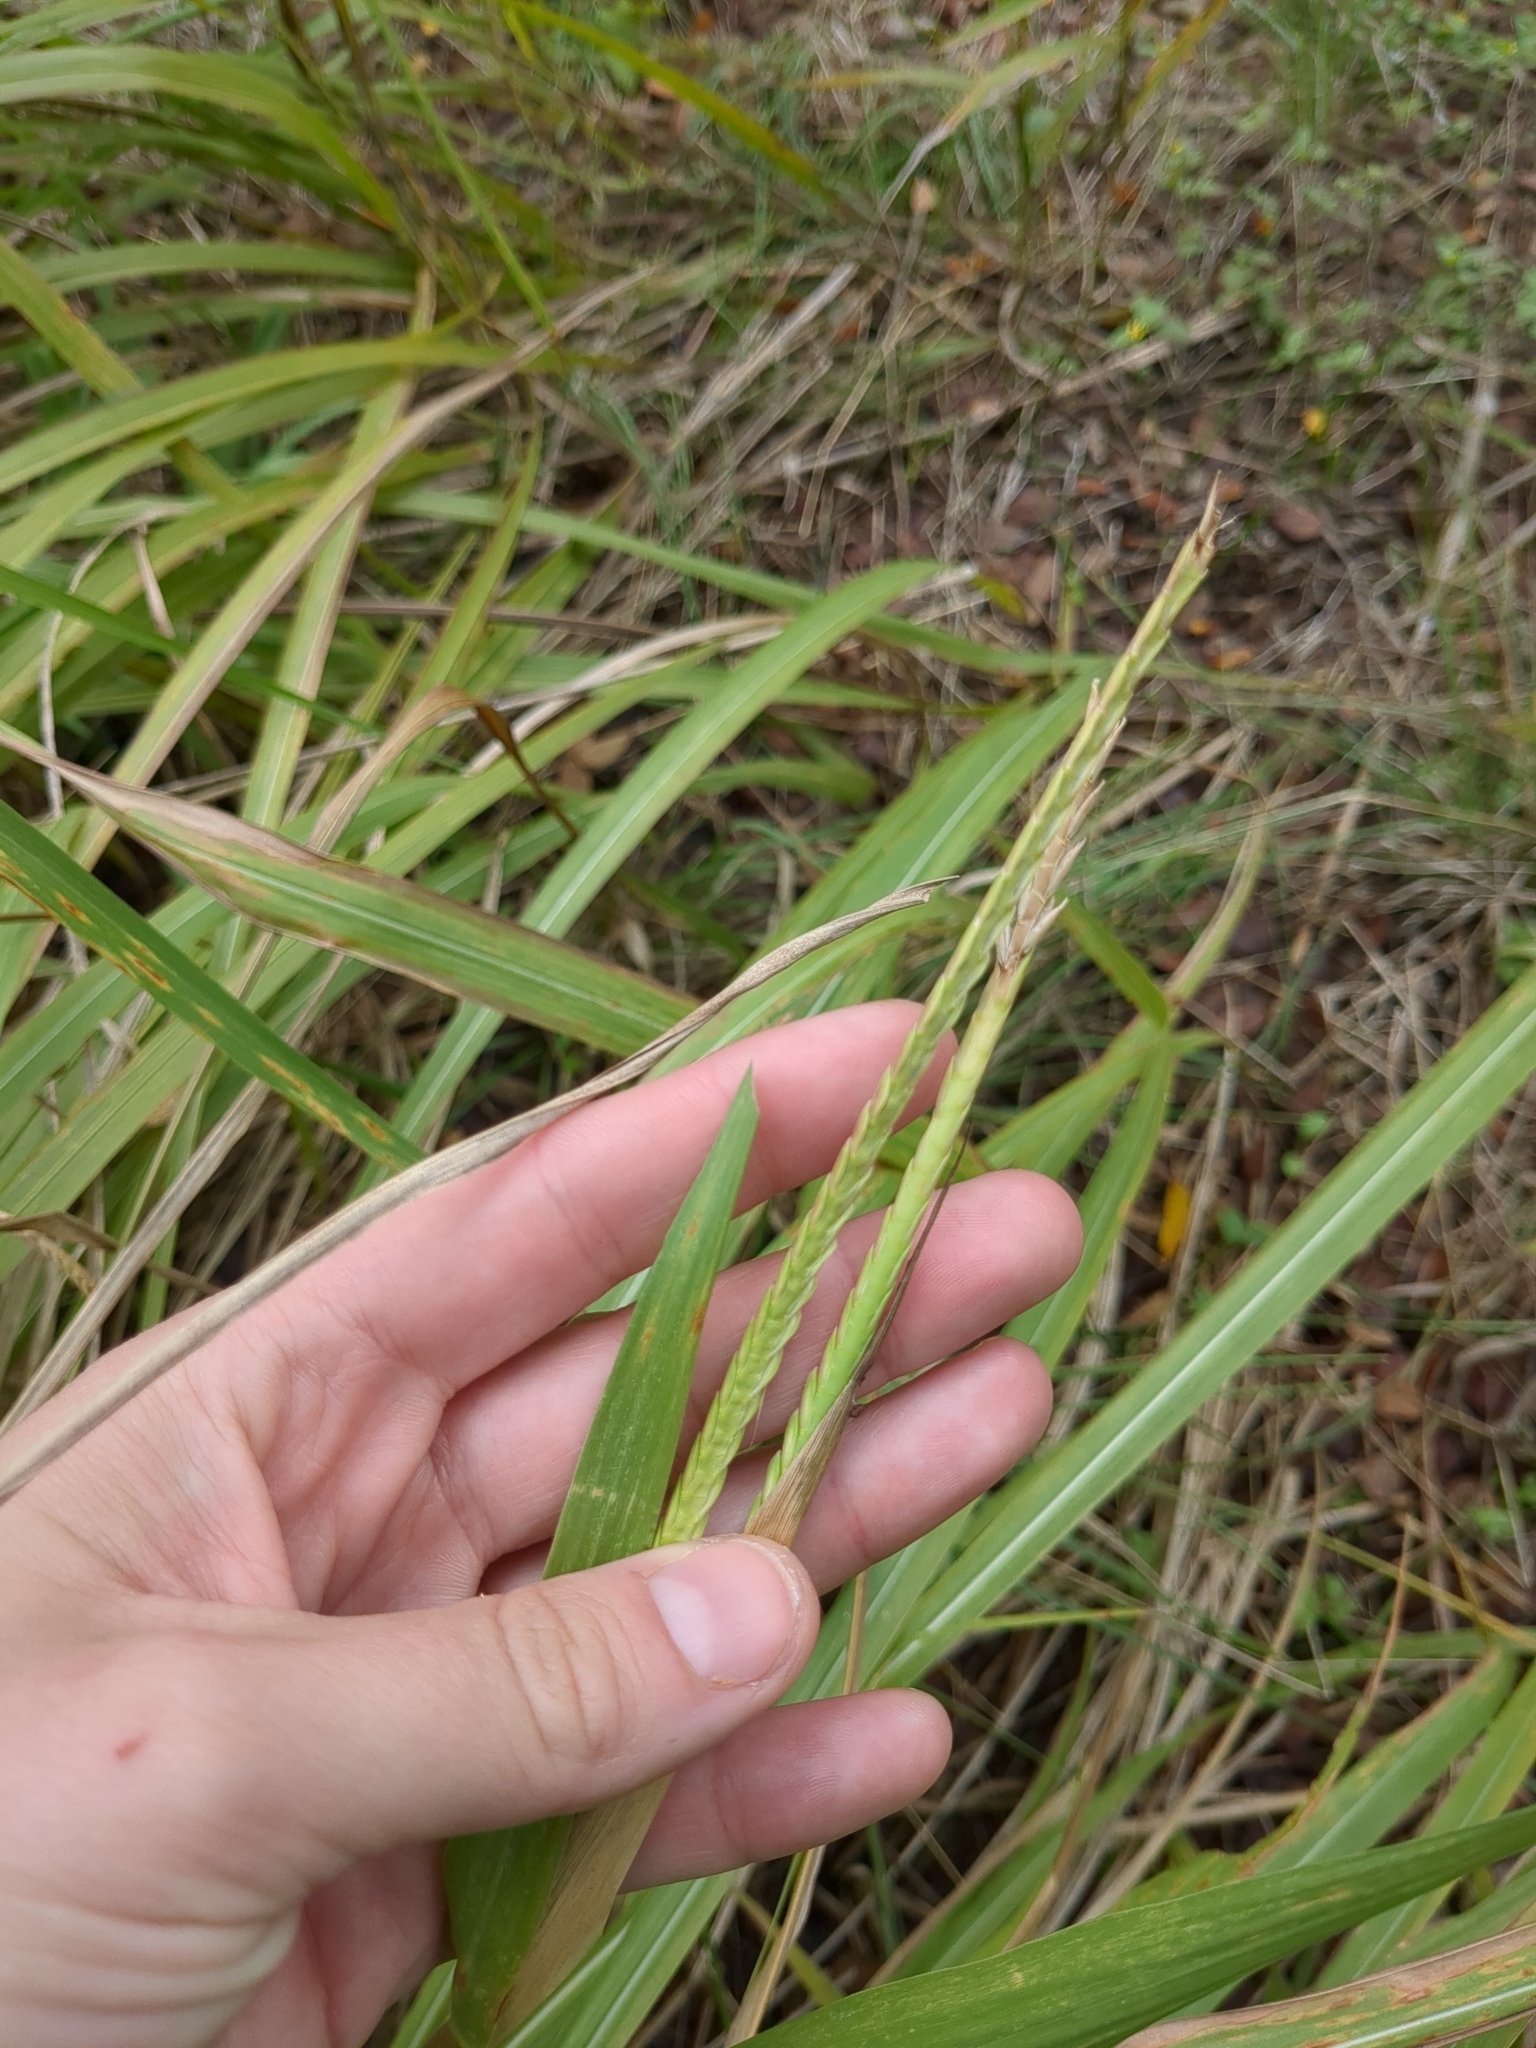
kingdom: Plantae
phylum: Tracheophyta
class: Liliopsida
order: Poales
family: Poaceae
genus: Tripsacum
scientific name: Tripsacum dactyloides
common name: Buffalo-grass
